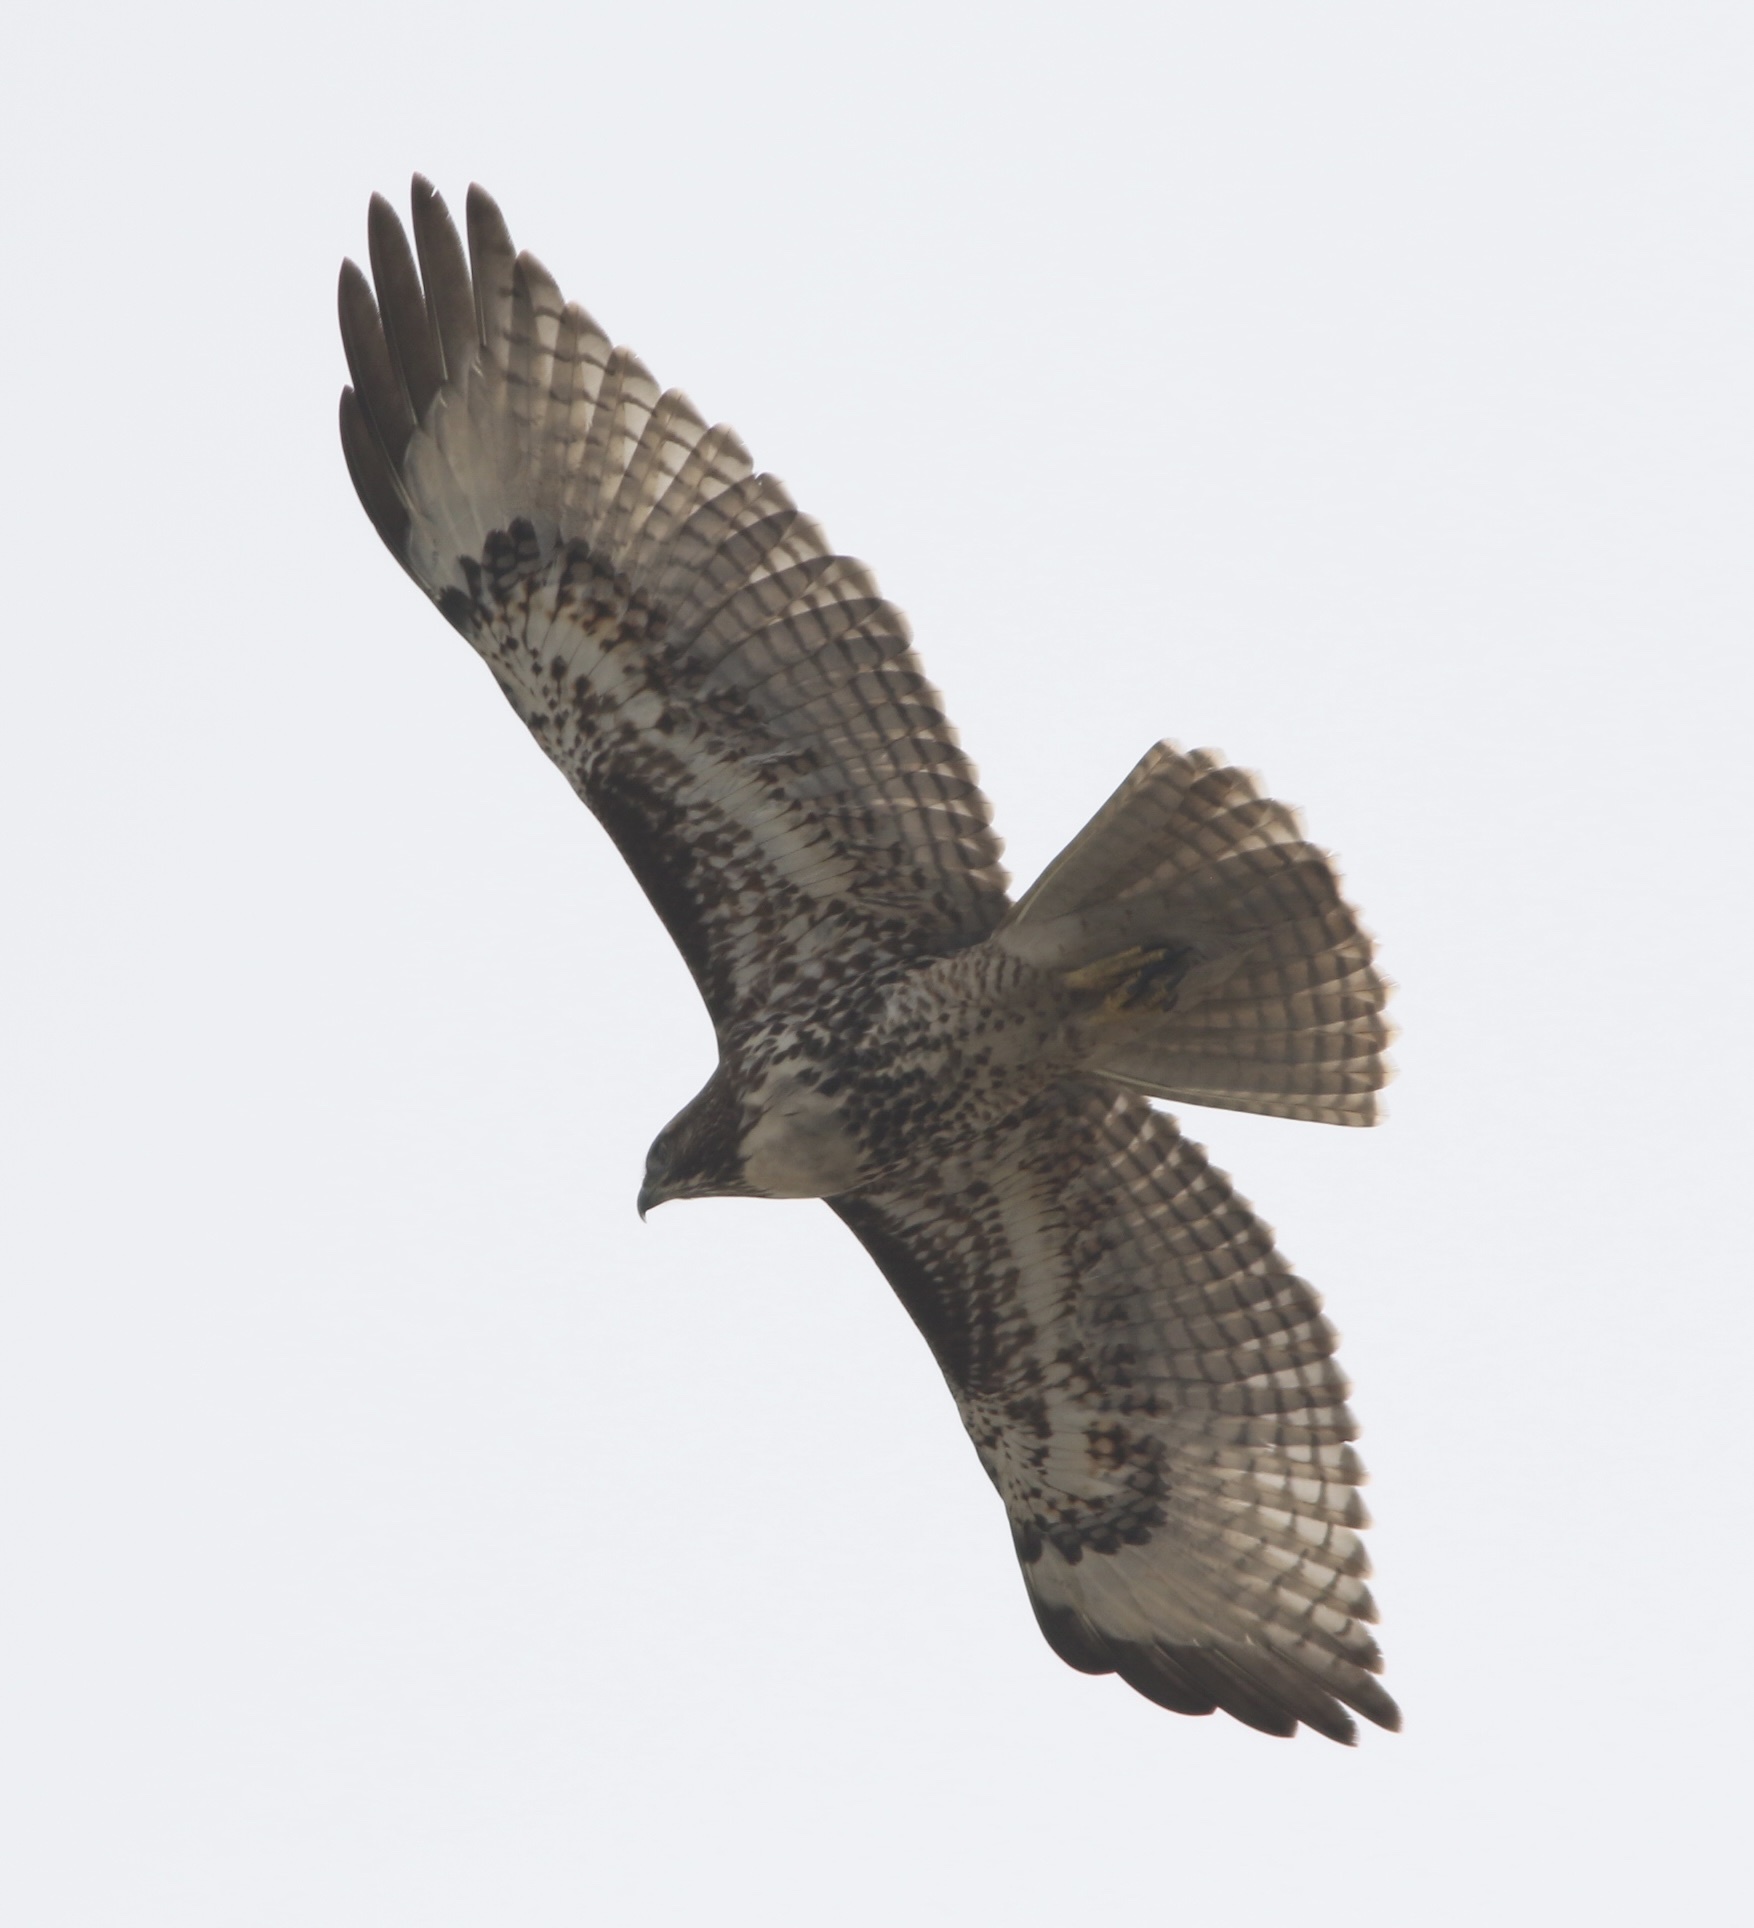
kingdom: Animalia
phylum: Chordata
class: Aves
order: Accipitriformes
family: Accipitridae
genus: Buteo
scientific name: Buteo jamaicensis
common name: Red-tailed hawk
